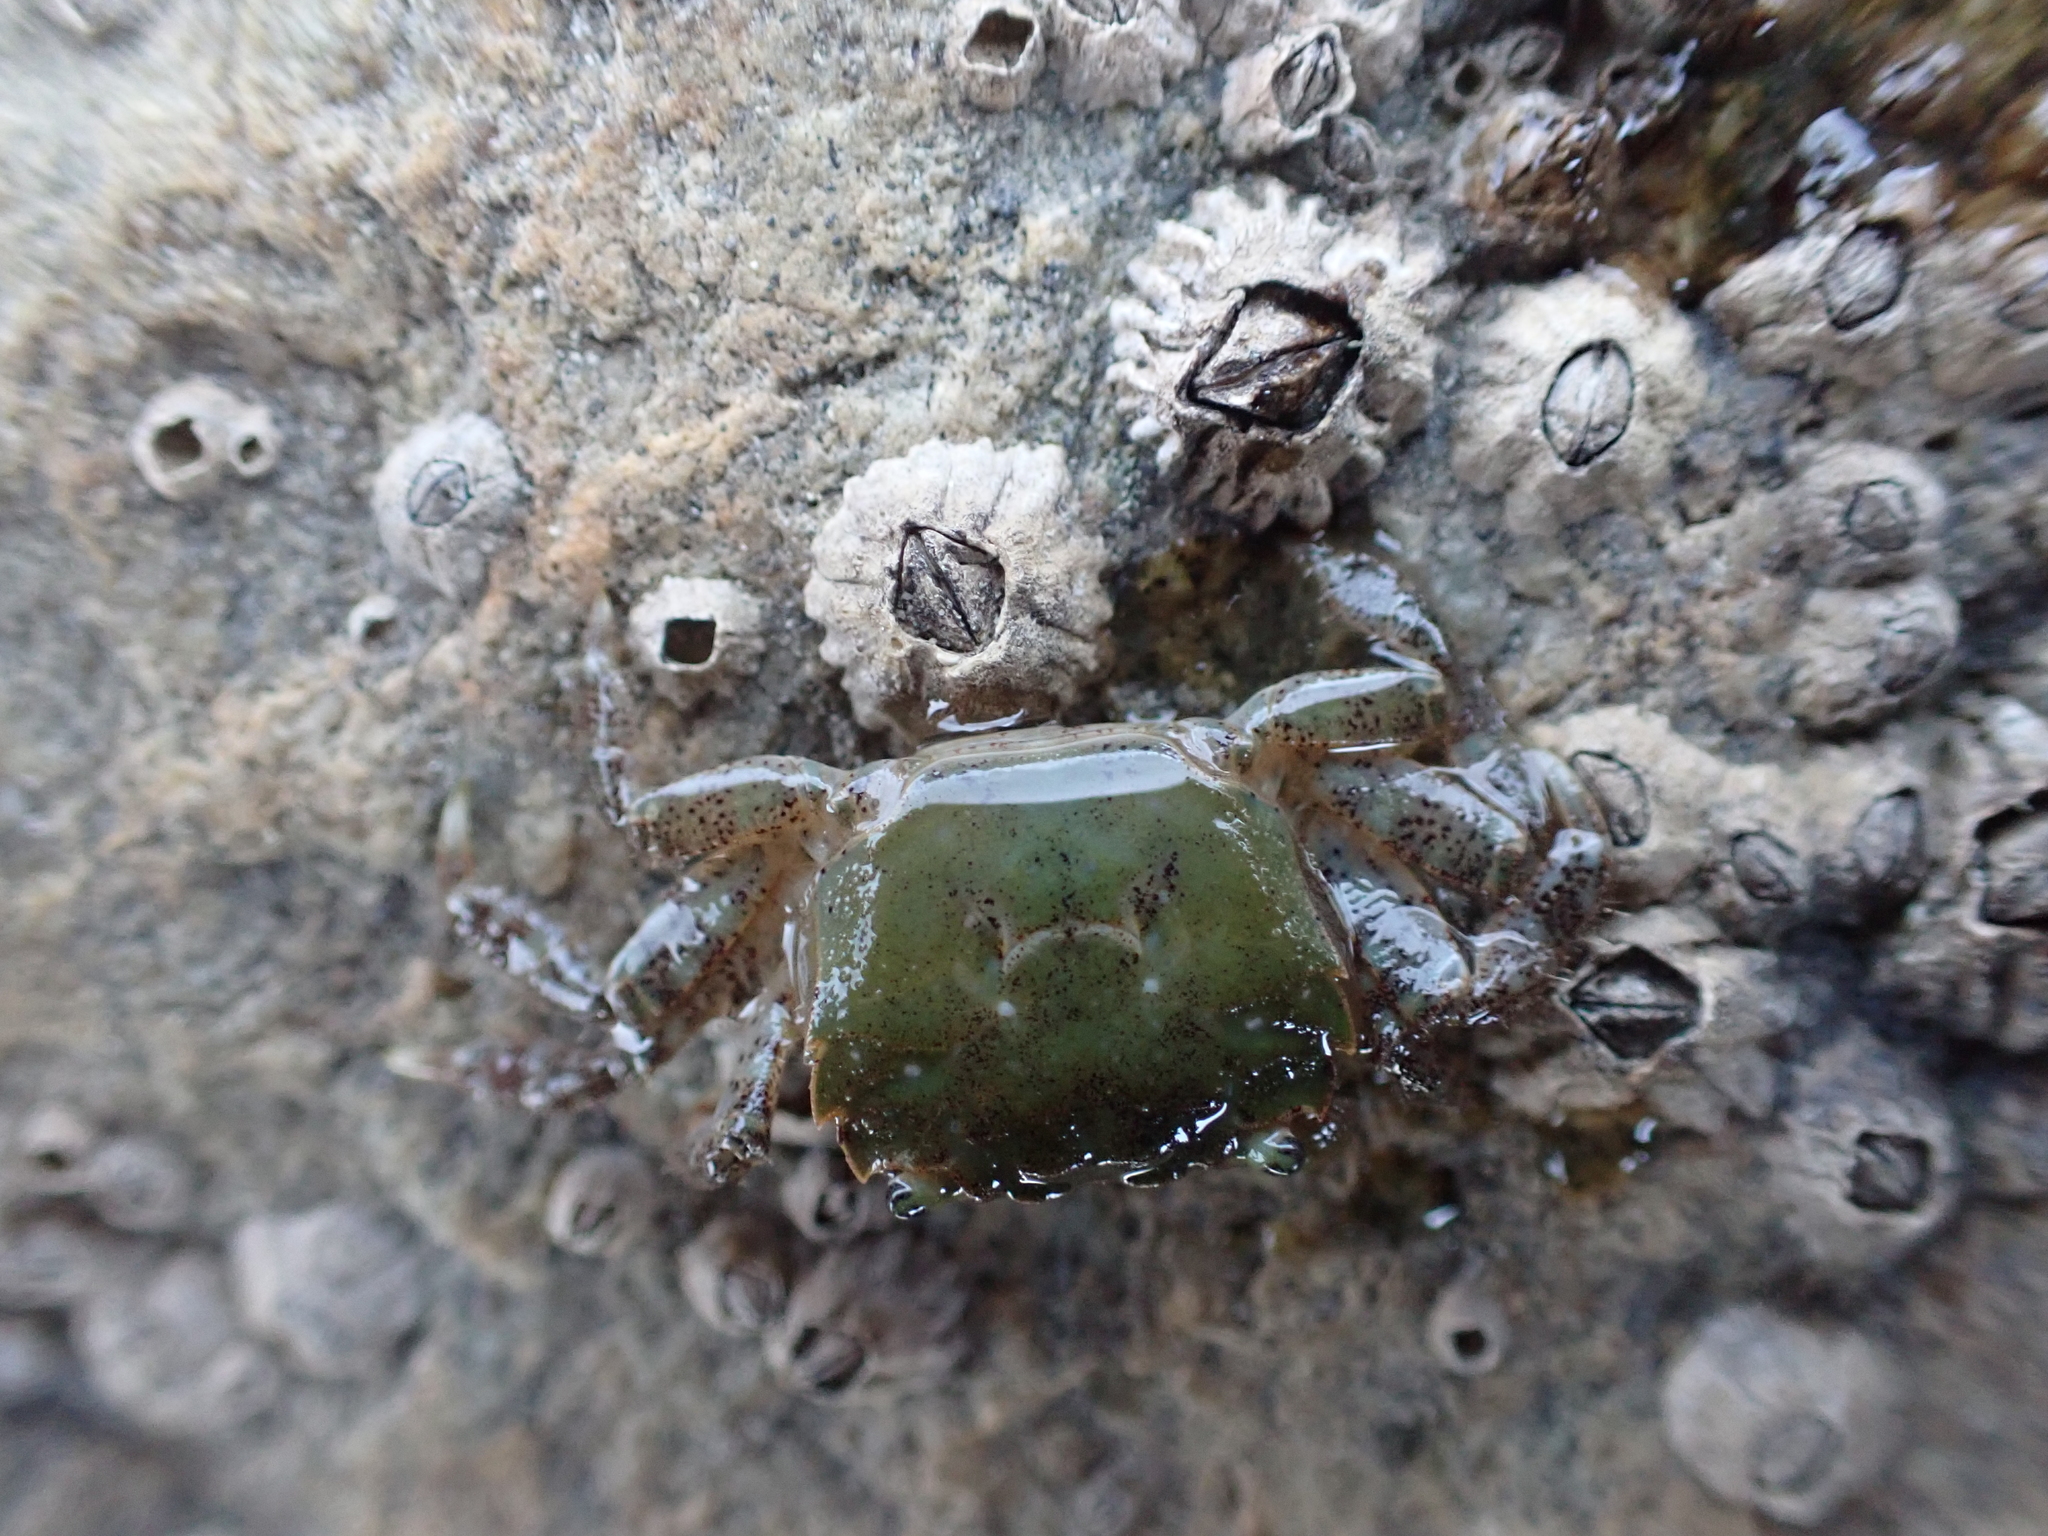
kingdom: Animalia
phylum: Arthropoda
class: Malacostraca
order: Decapoda
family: Varunidae
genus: Hemigrapsus
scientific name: Hemigrapsus oregonensis
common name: Yellow shore crab
